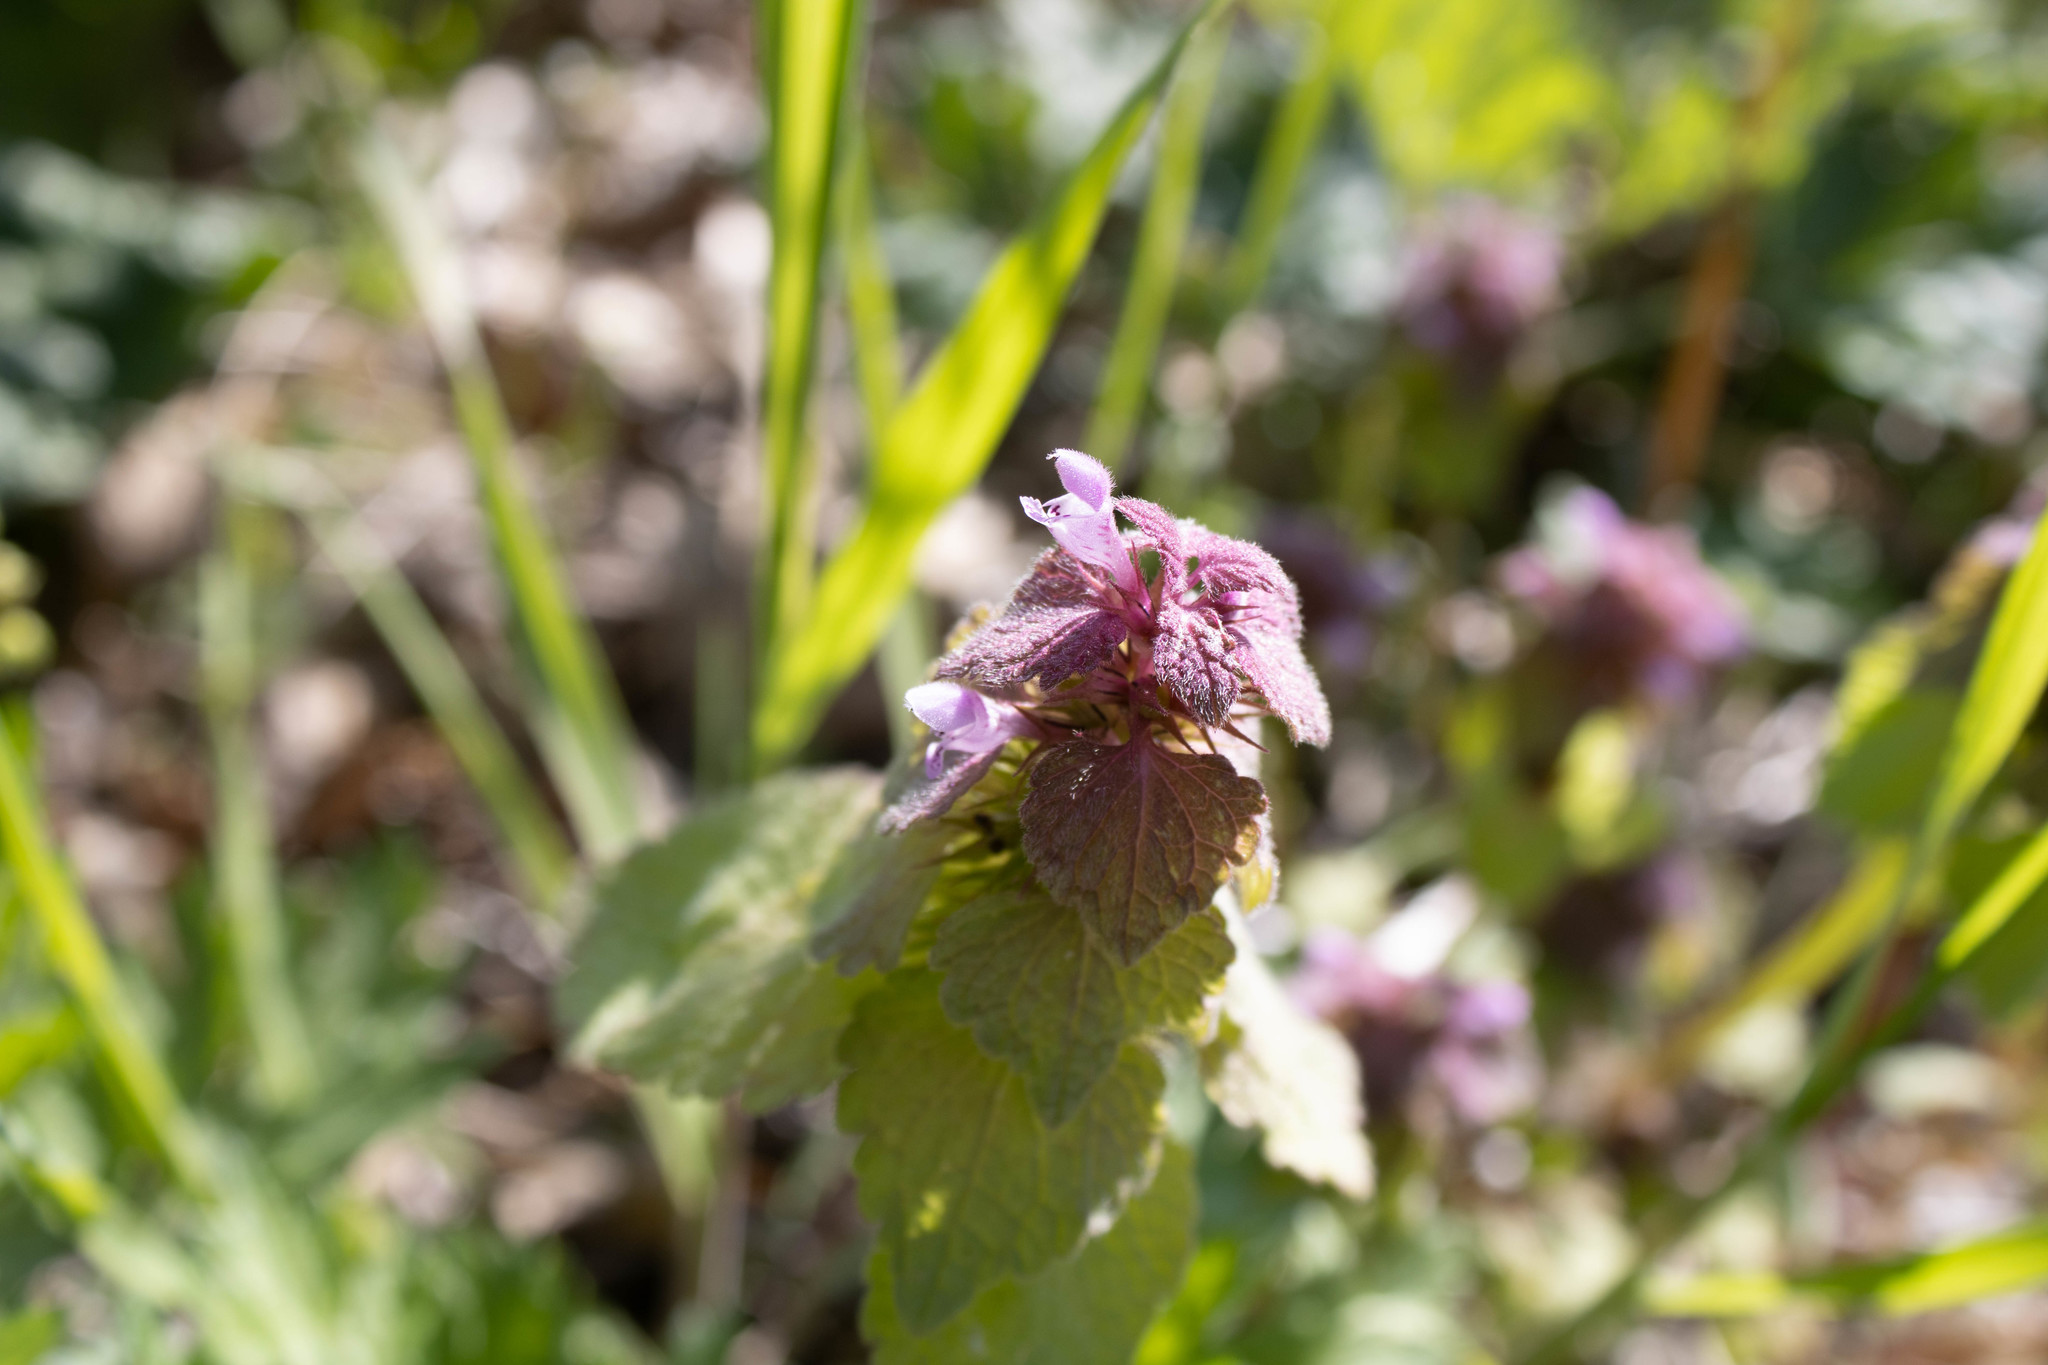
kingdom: Plantae
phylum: Tracheophyta
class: Magnoliopsida
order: Lamiales
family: Lamiaceae
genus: Lamium
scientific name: Lamium purpureum
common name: Red dead-nettle
